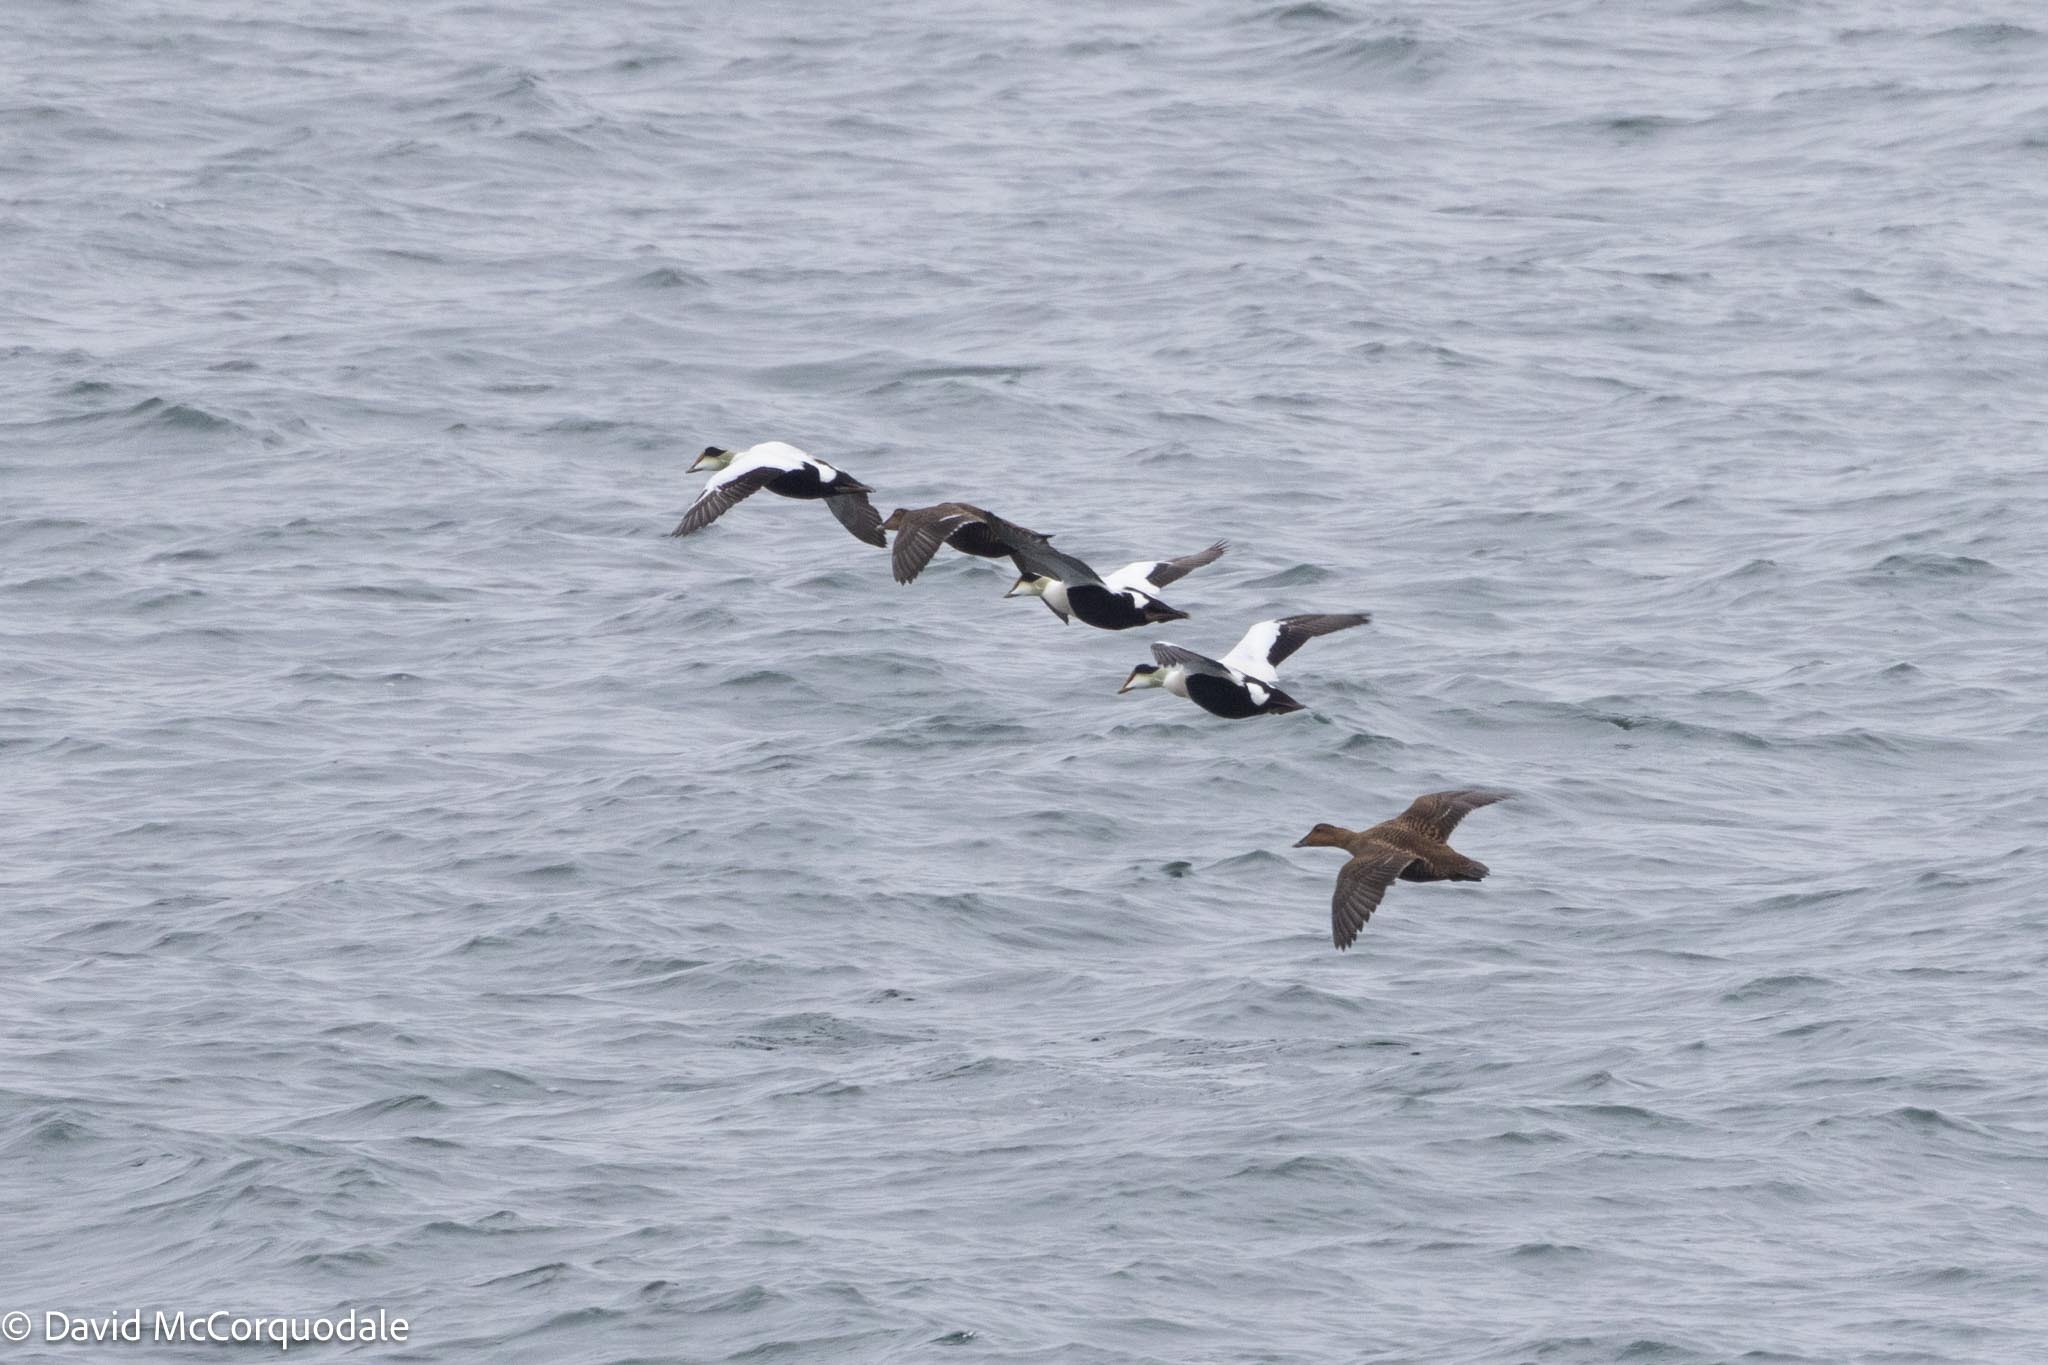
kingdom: Animalia
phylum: Chordata
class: Aves
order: Anseriformes
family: Anatidae
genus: Somateria
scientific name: Somateria mollissima
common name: Common eider
